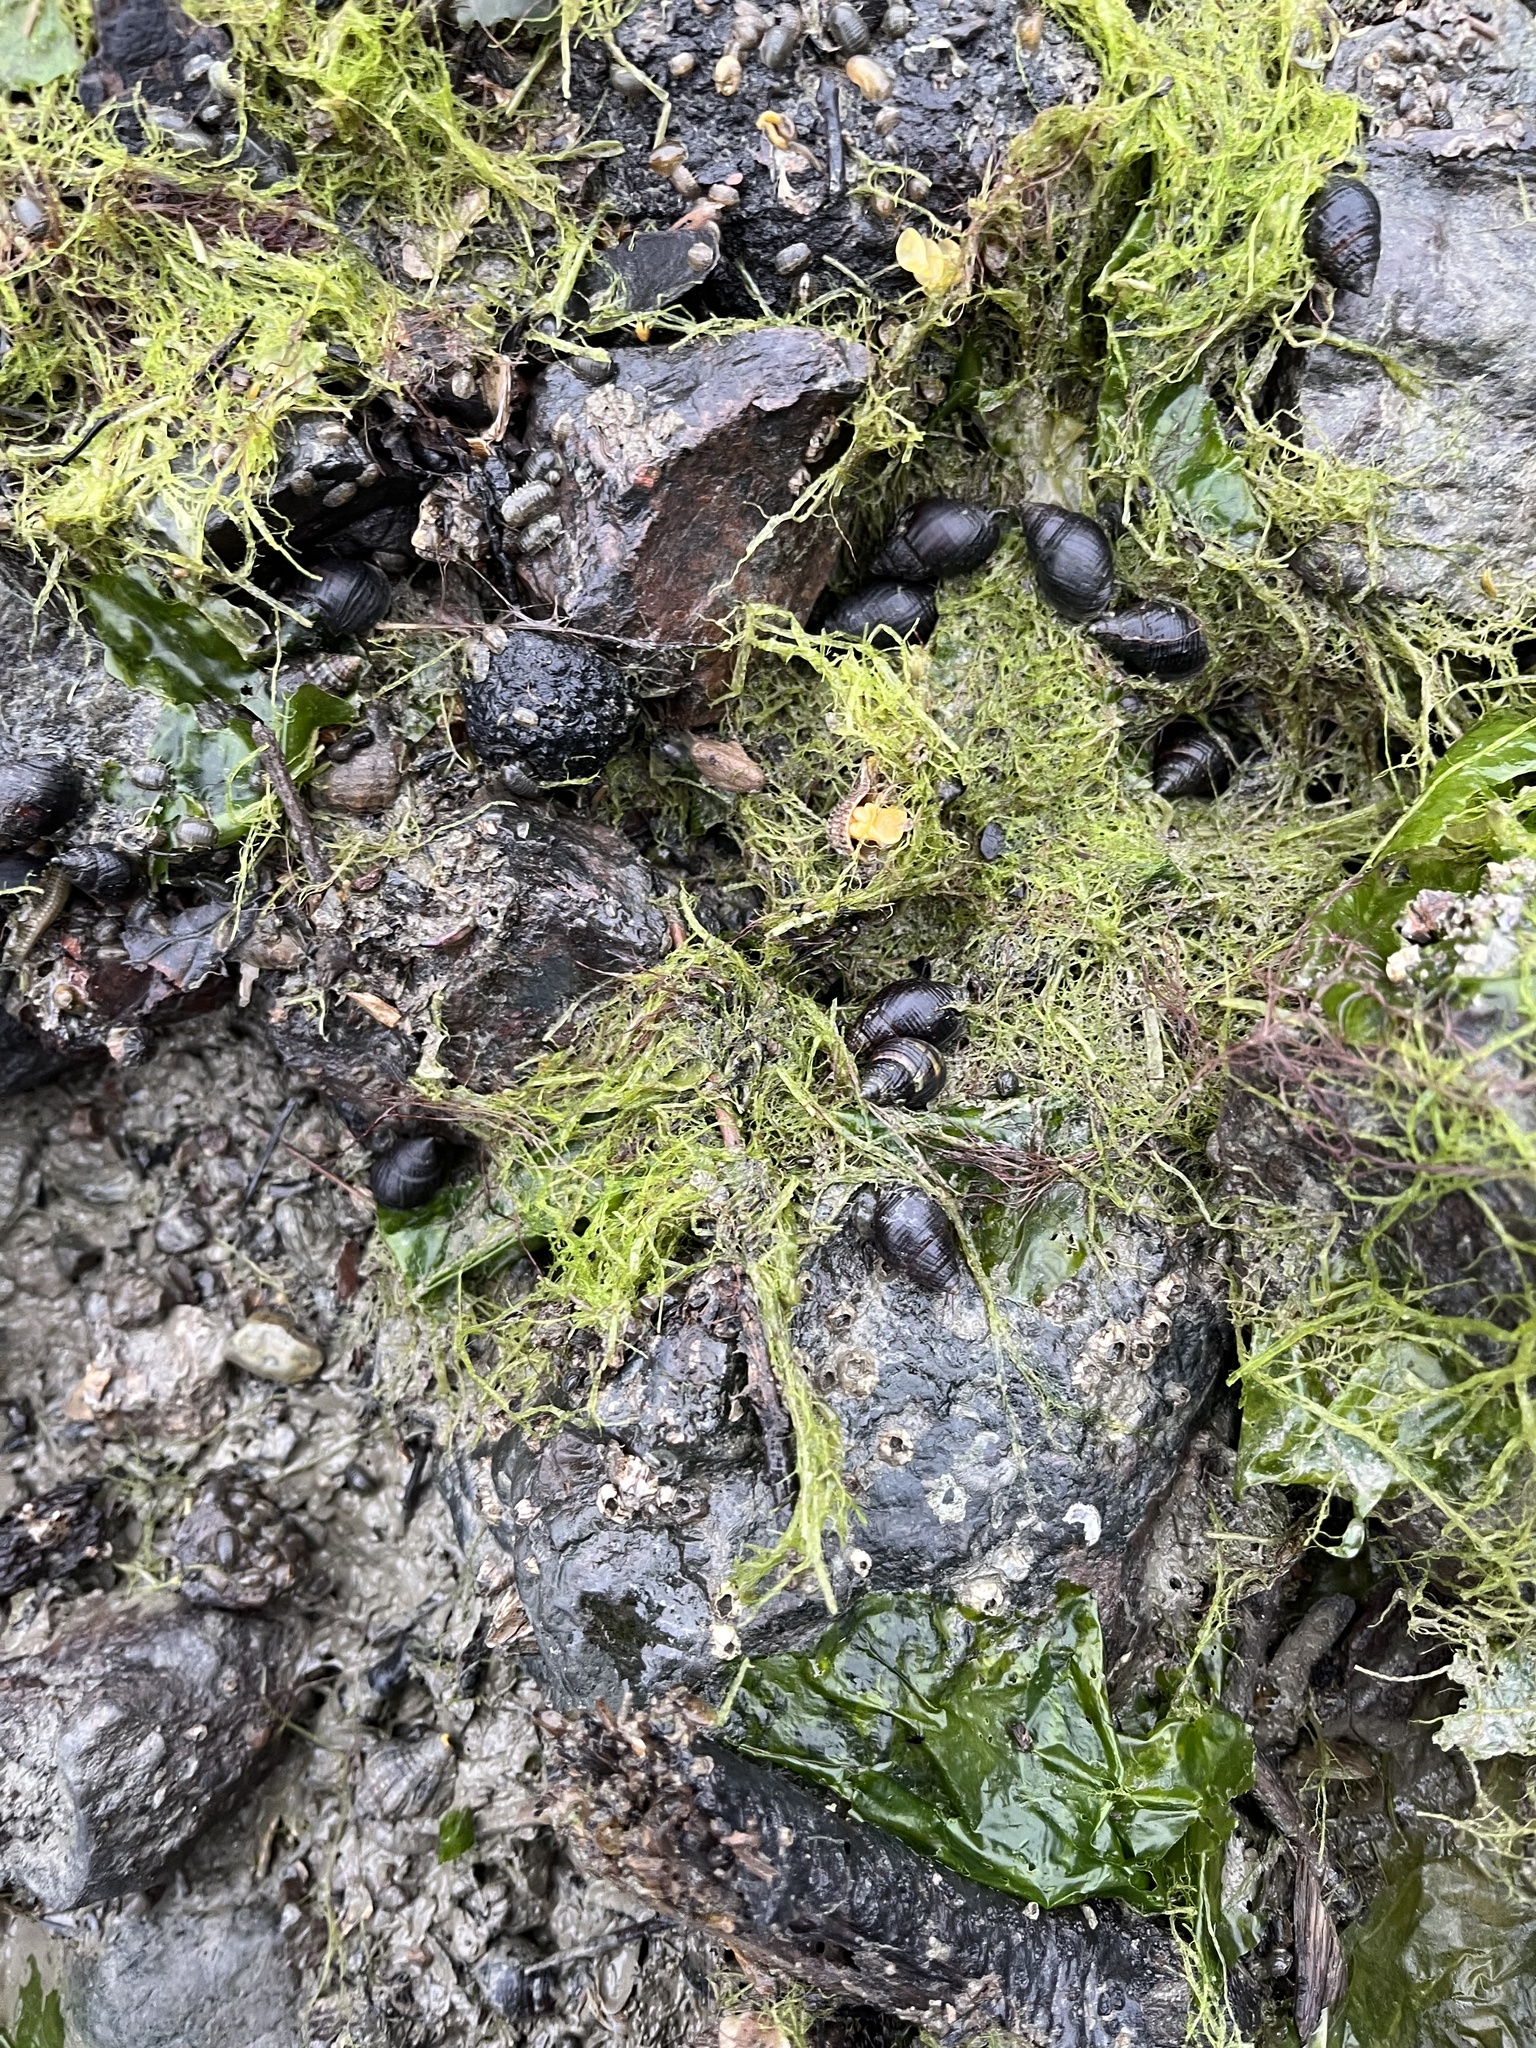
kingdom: Animalia
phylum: Mollusca
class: Gastropoda
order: Neogastropoda
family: Nassariidae
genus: Ilyanassa
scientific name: Ilyanassa obsoleta
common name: Eastern mudsnail
